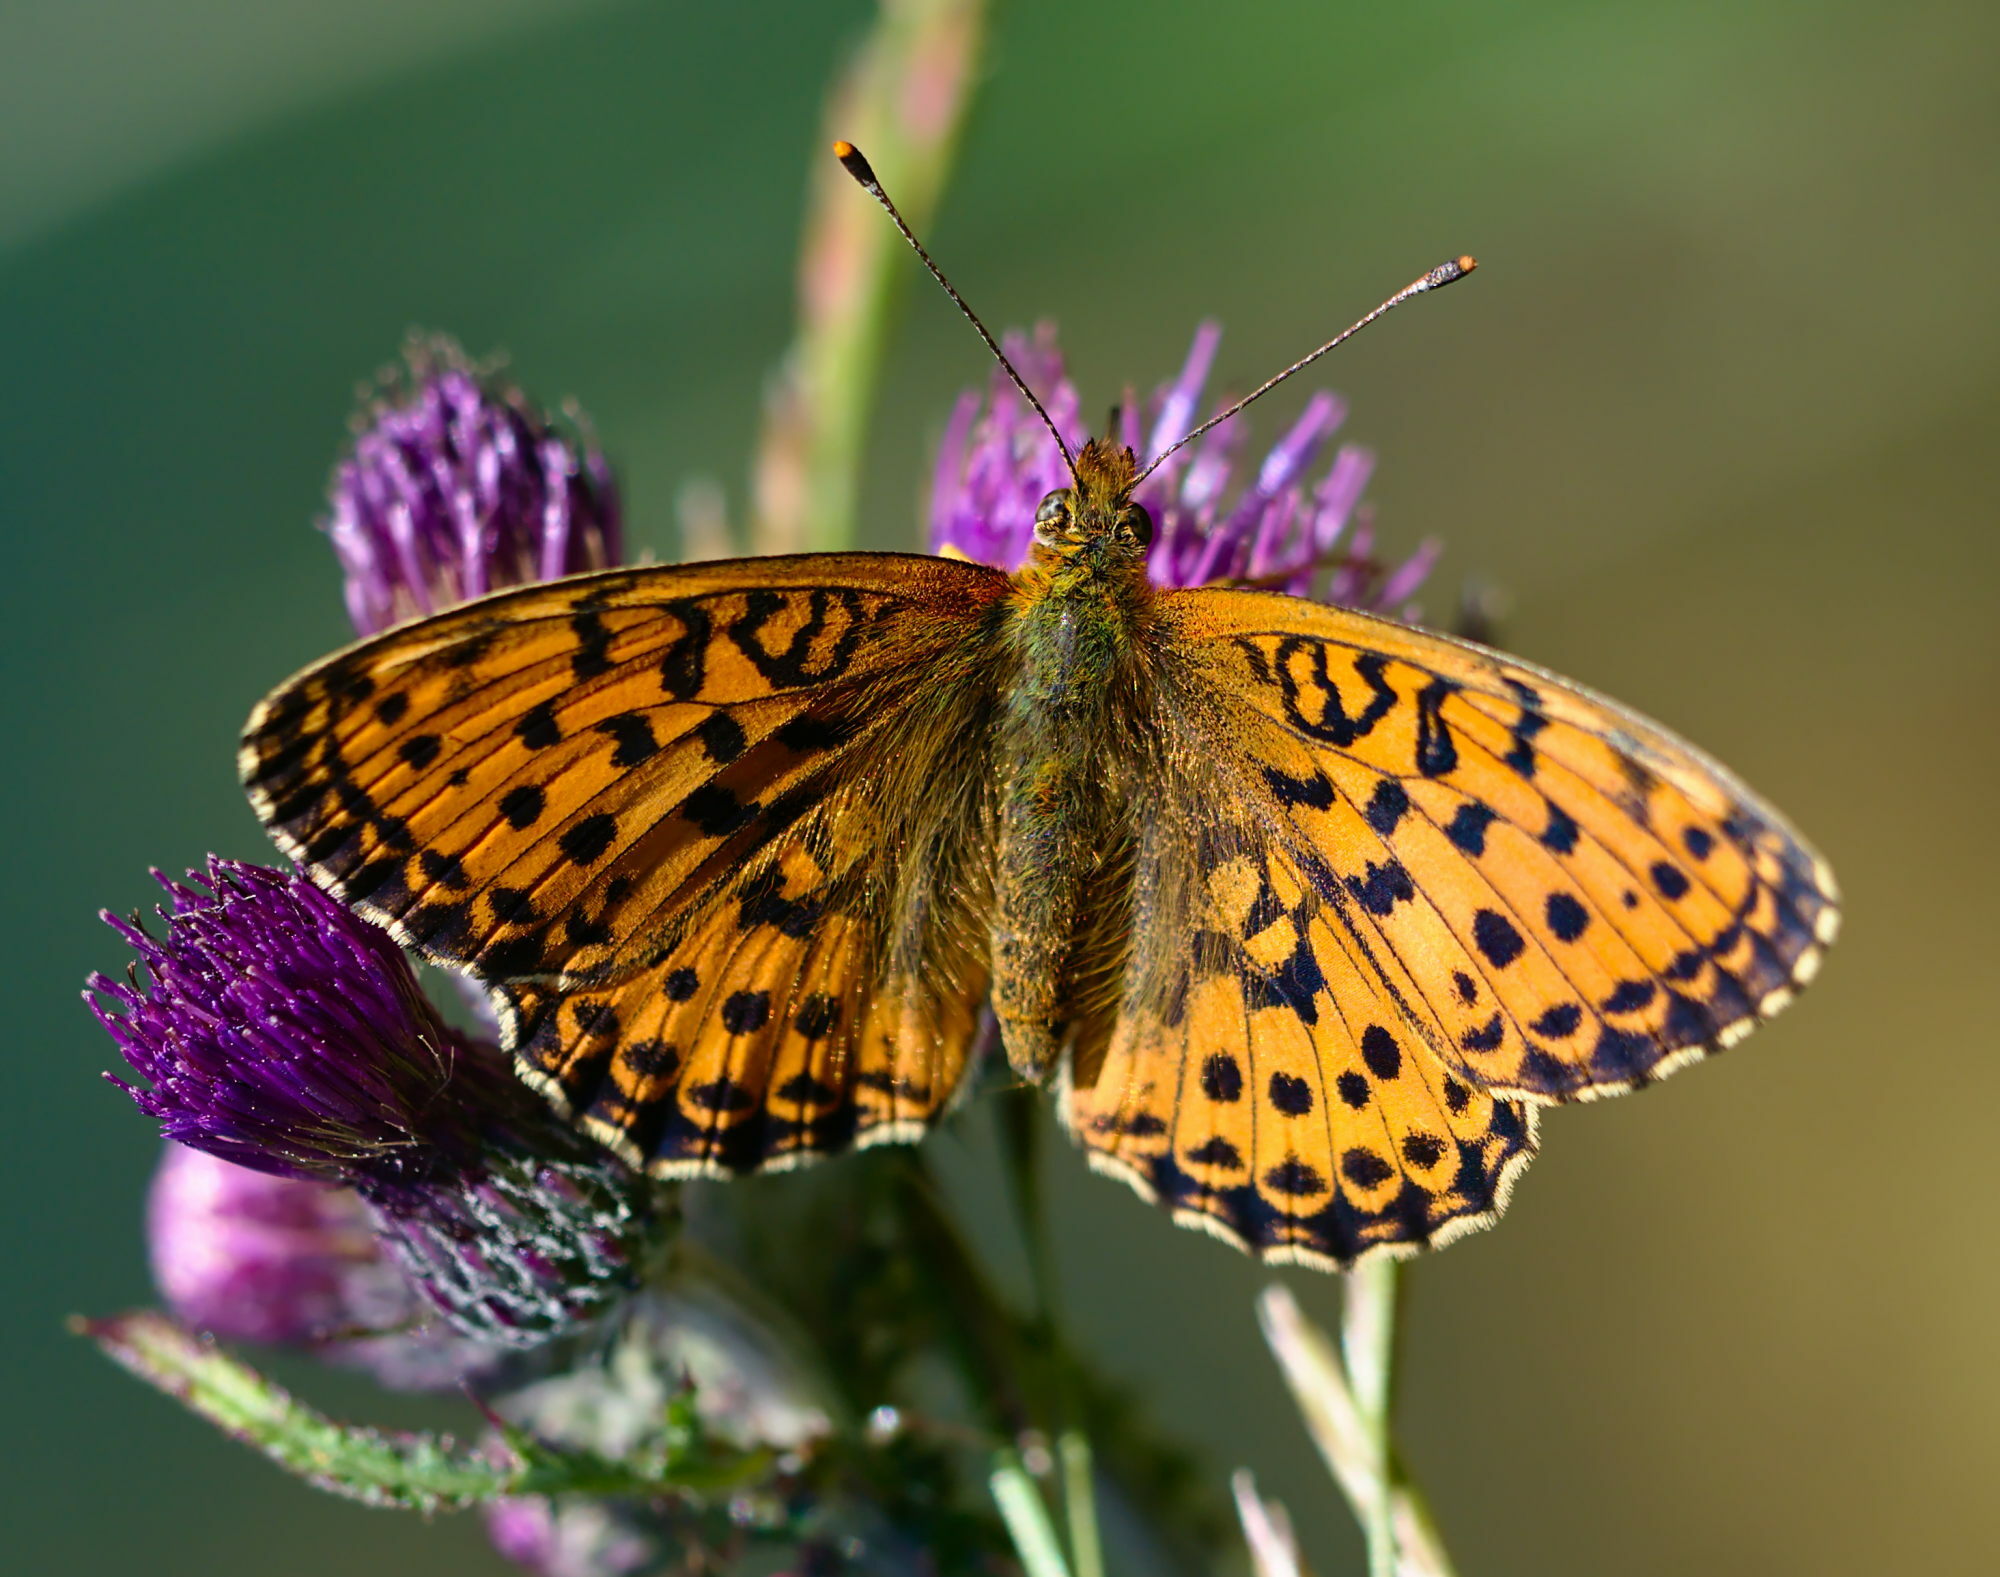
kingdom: Animalia
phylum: Arthropoda
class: Insecta
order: Lepidoptera
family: Nymphalidae
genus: Brenthis
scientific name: Brenthis ino
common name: Lesser marbled fritillary
